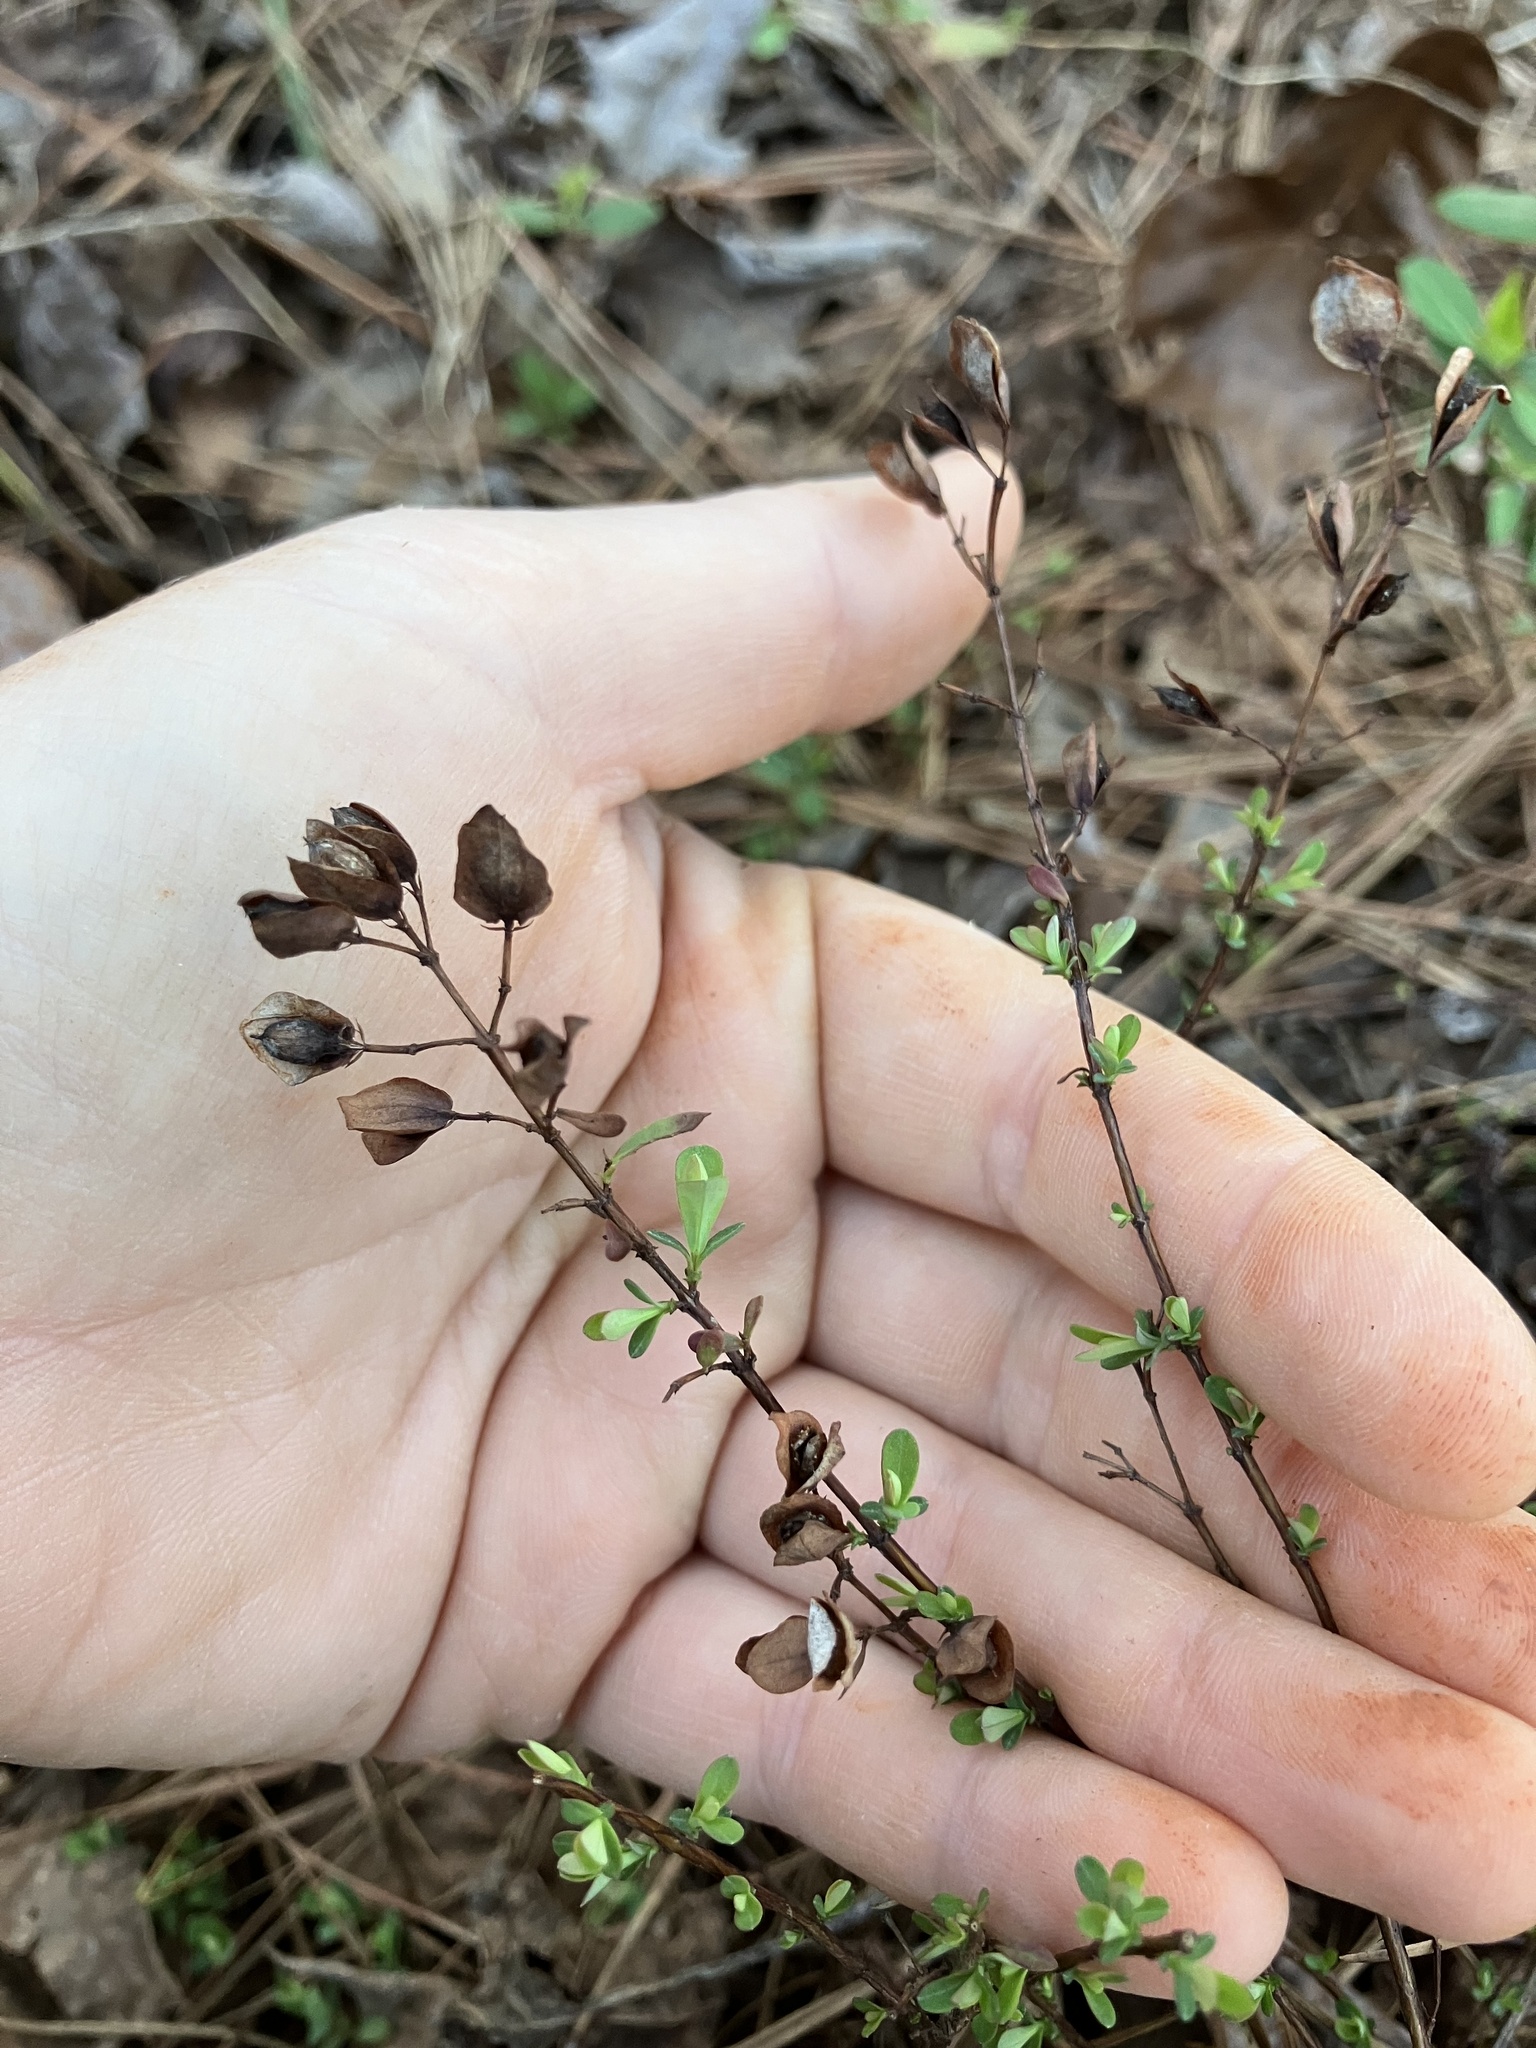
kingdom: Plantae
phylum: Tracheophyta
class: Magnoliopsida
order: Malpighiales
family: Hypericaceae
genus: Hypericum
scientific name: Hypericum hypericoides
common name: St. andrew's cross
